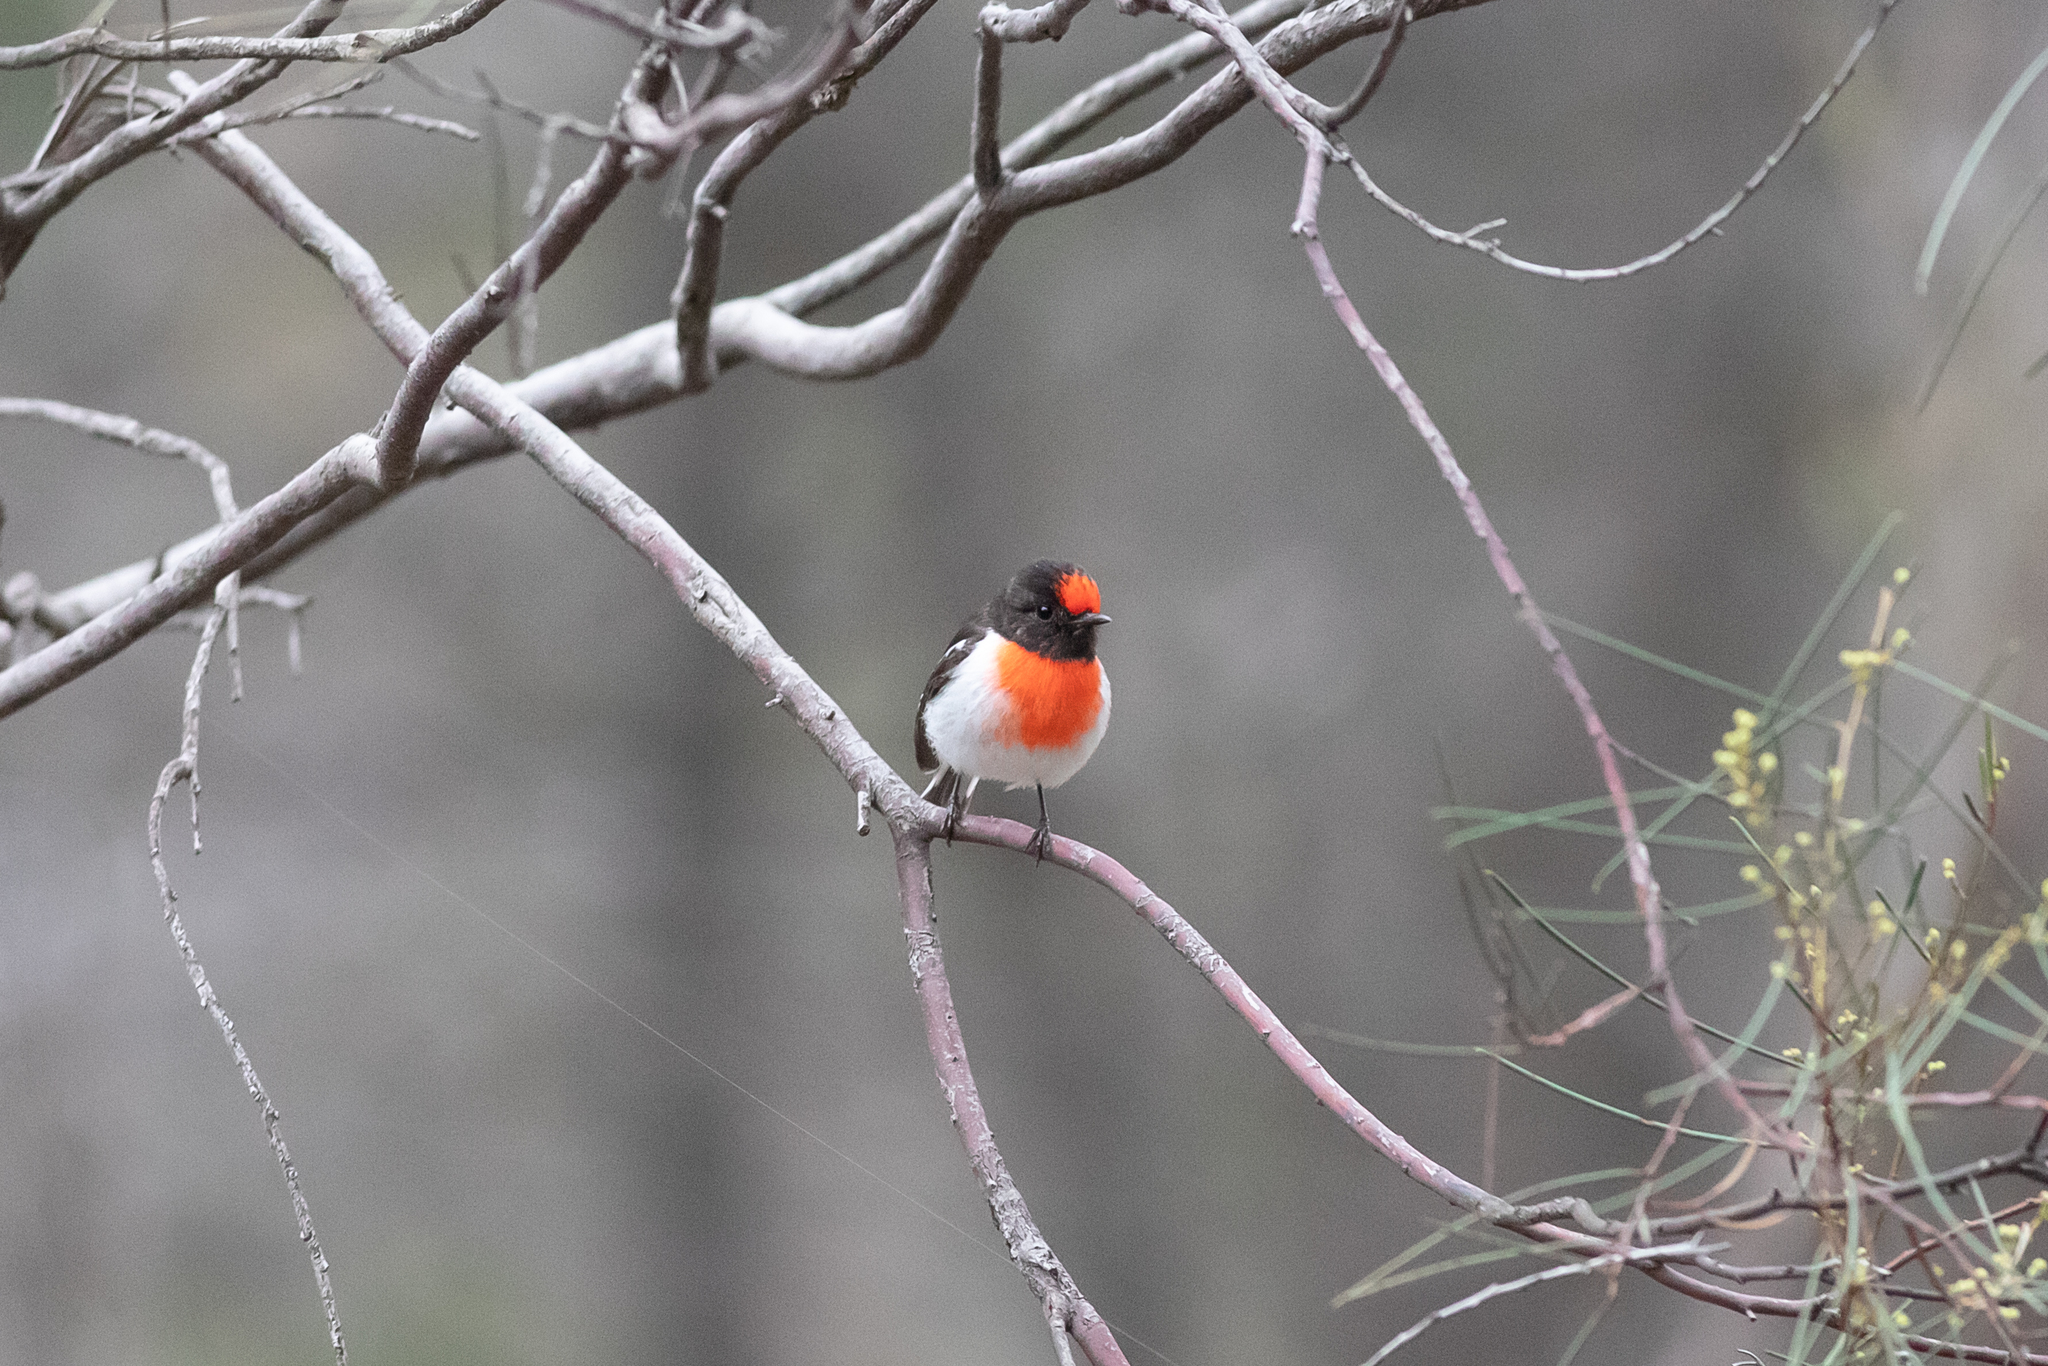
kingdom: Animalia
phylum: Chordata
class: Aves
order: Passeriformes
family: Petroicidae
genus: Petroica
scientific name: Petroica goodenovii
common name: Red-capped robin
